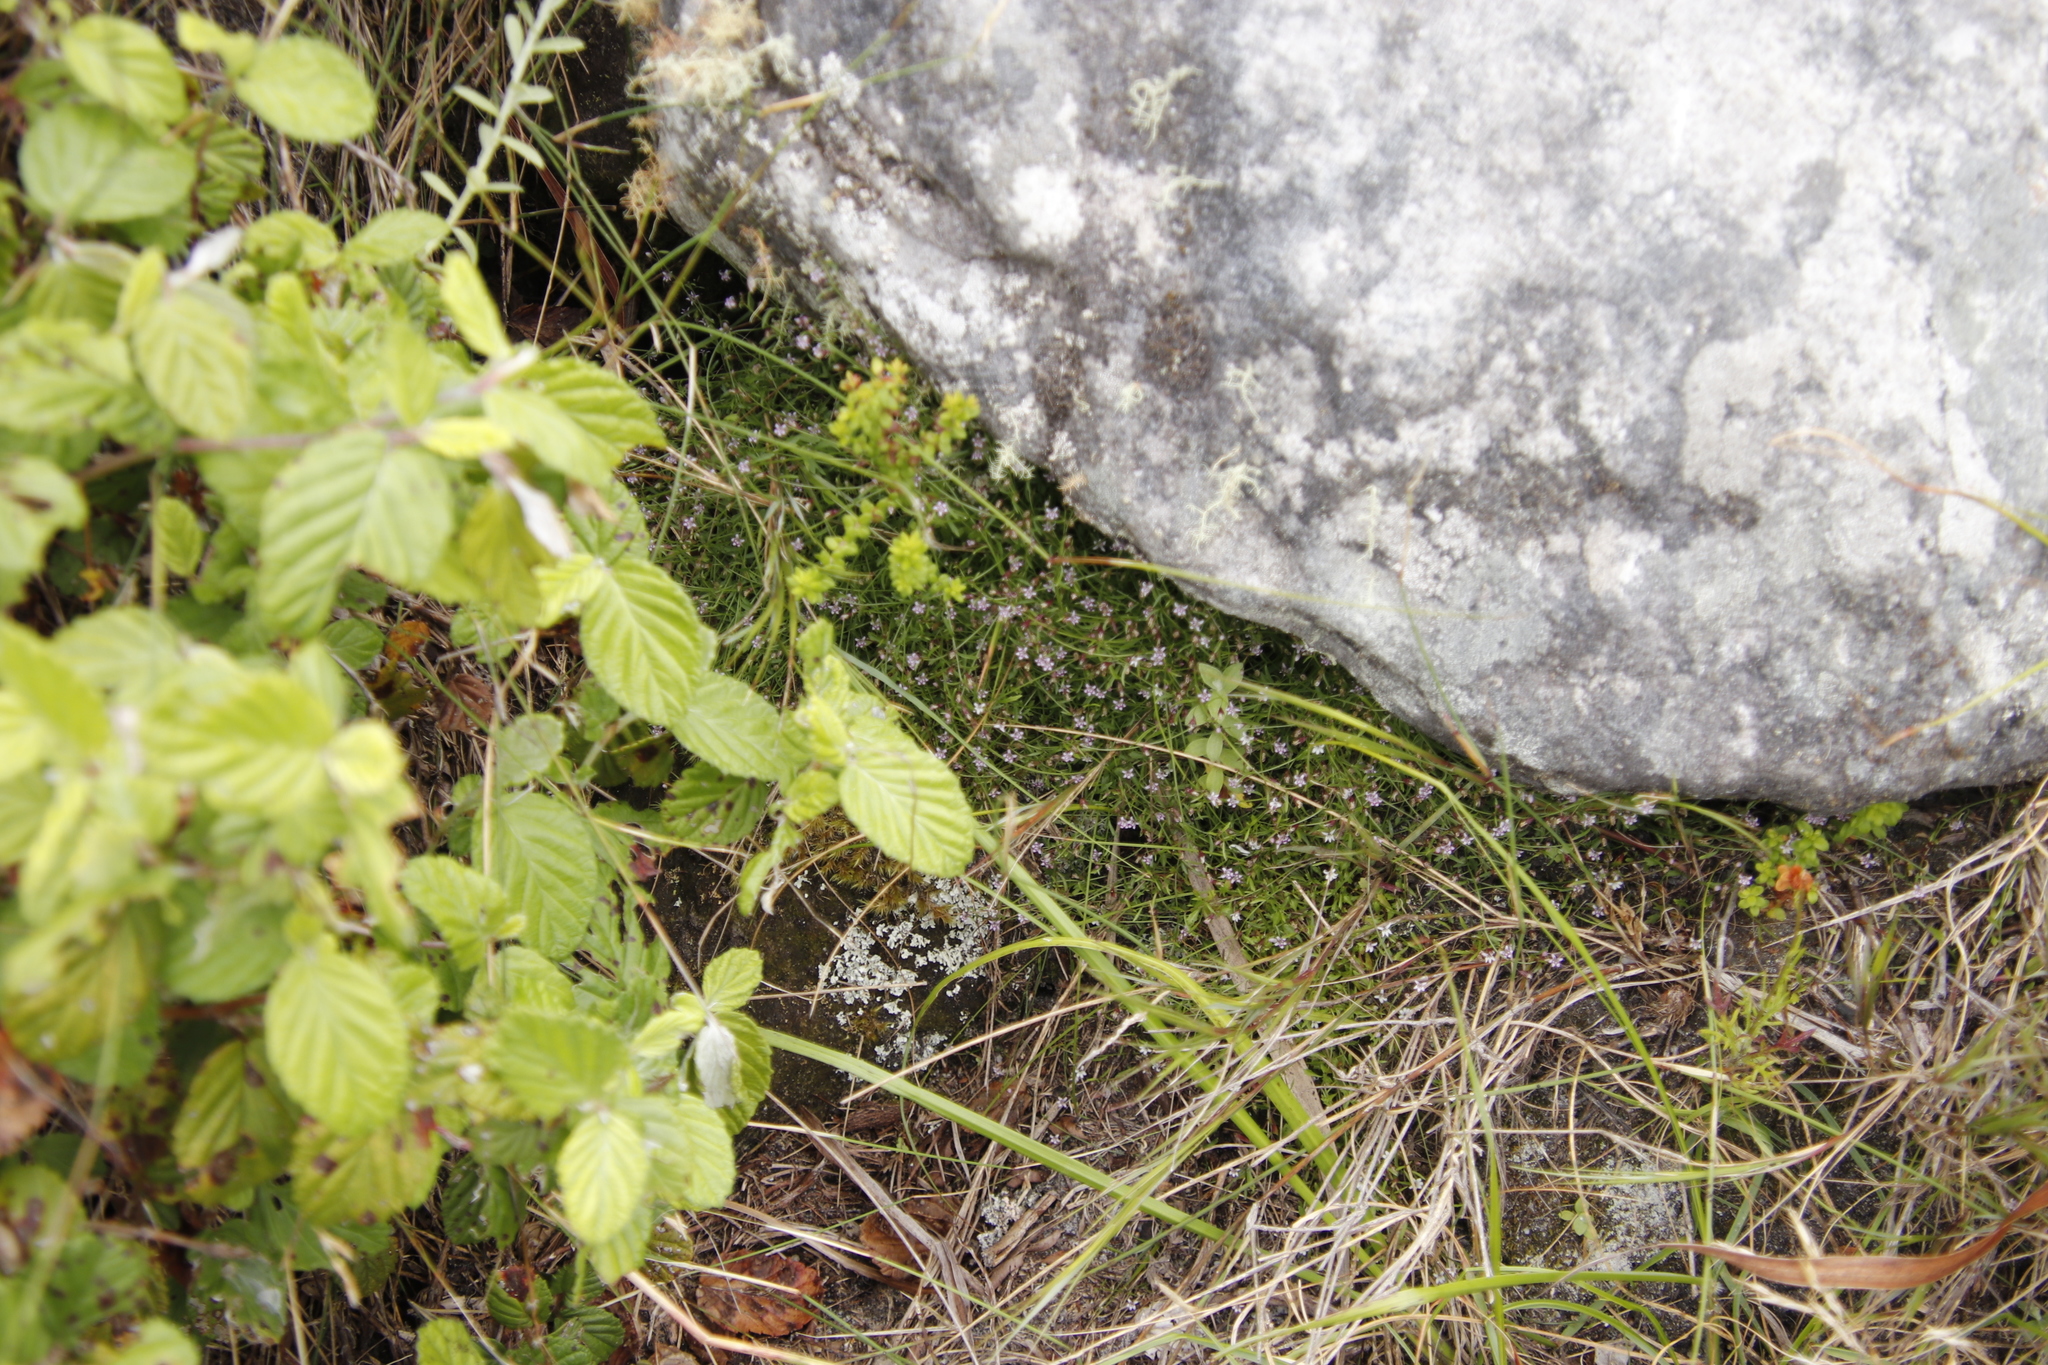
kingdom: Plantae
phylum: Tracheophyta
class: Magnoliopsida
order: Asterales
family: Campanulaceae
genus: Lobelia
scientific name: Lobelia eckloniana
